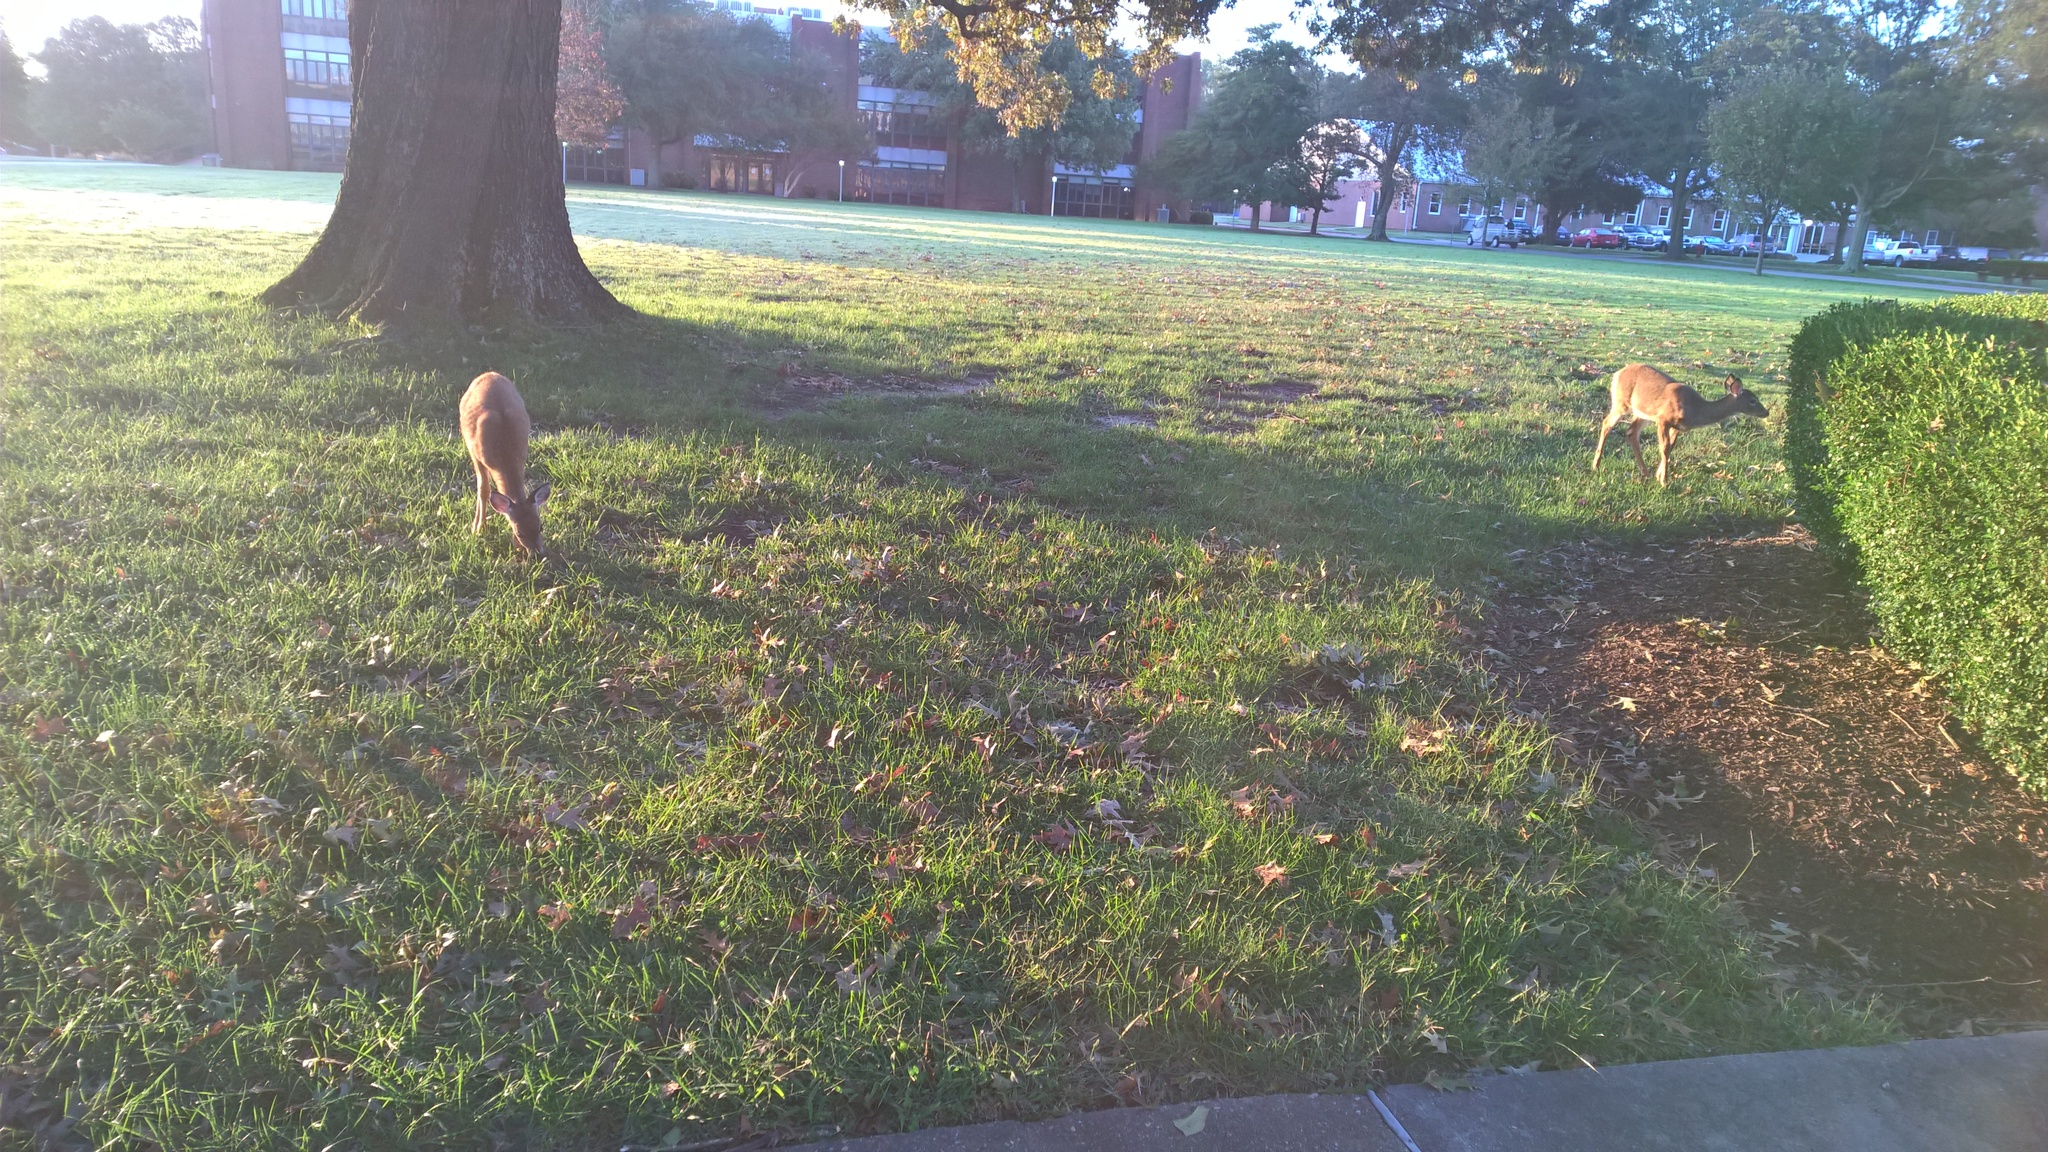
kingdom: Animalia
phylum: Chordata
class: Mammalia
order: Artiodactyla
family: Cervidae
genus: Odocoileus
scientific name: Odocoileus virginianus
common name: White-tailed deer
